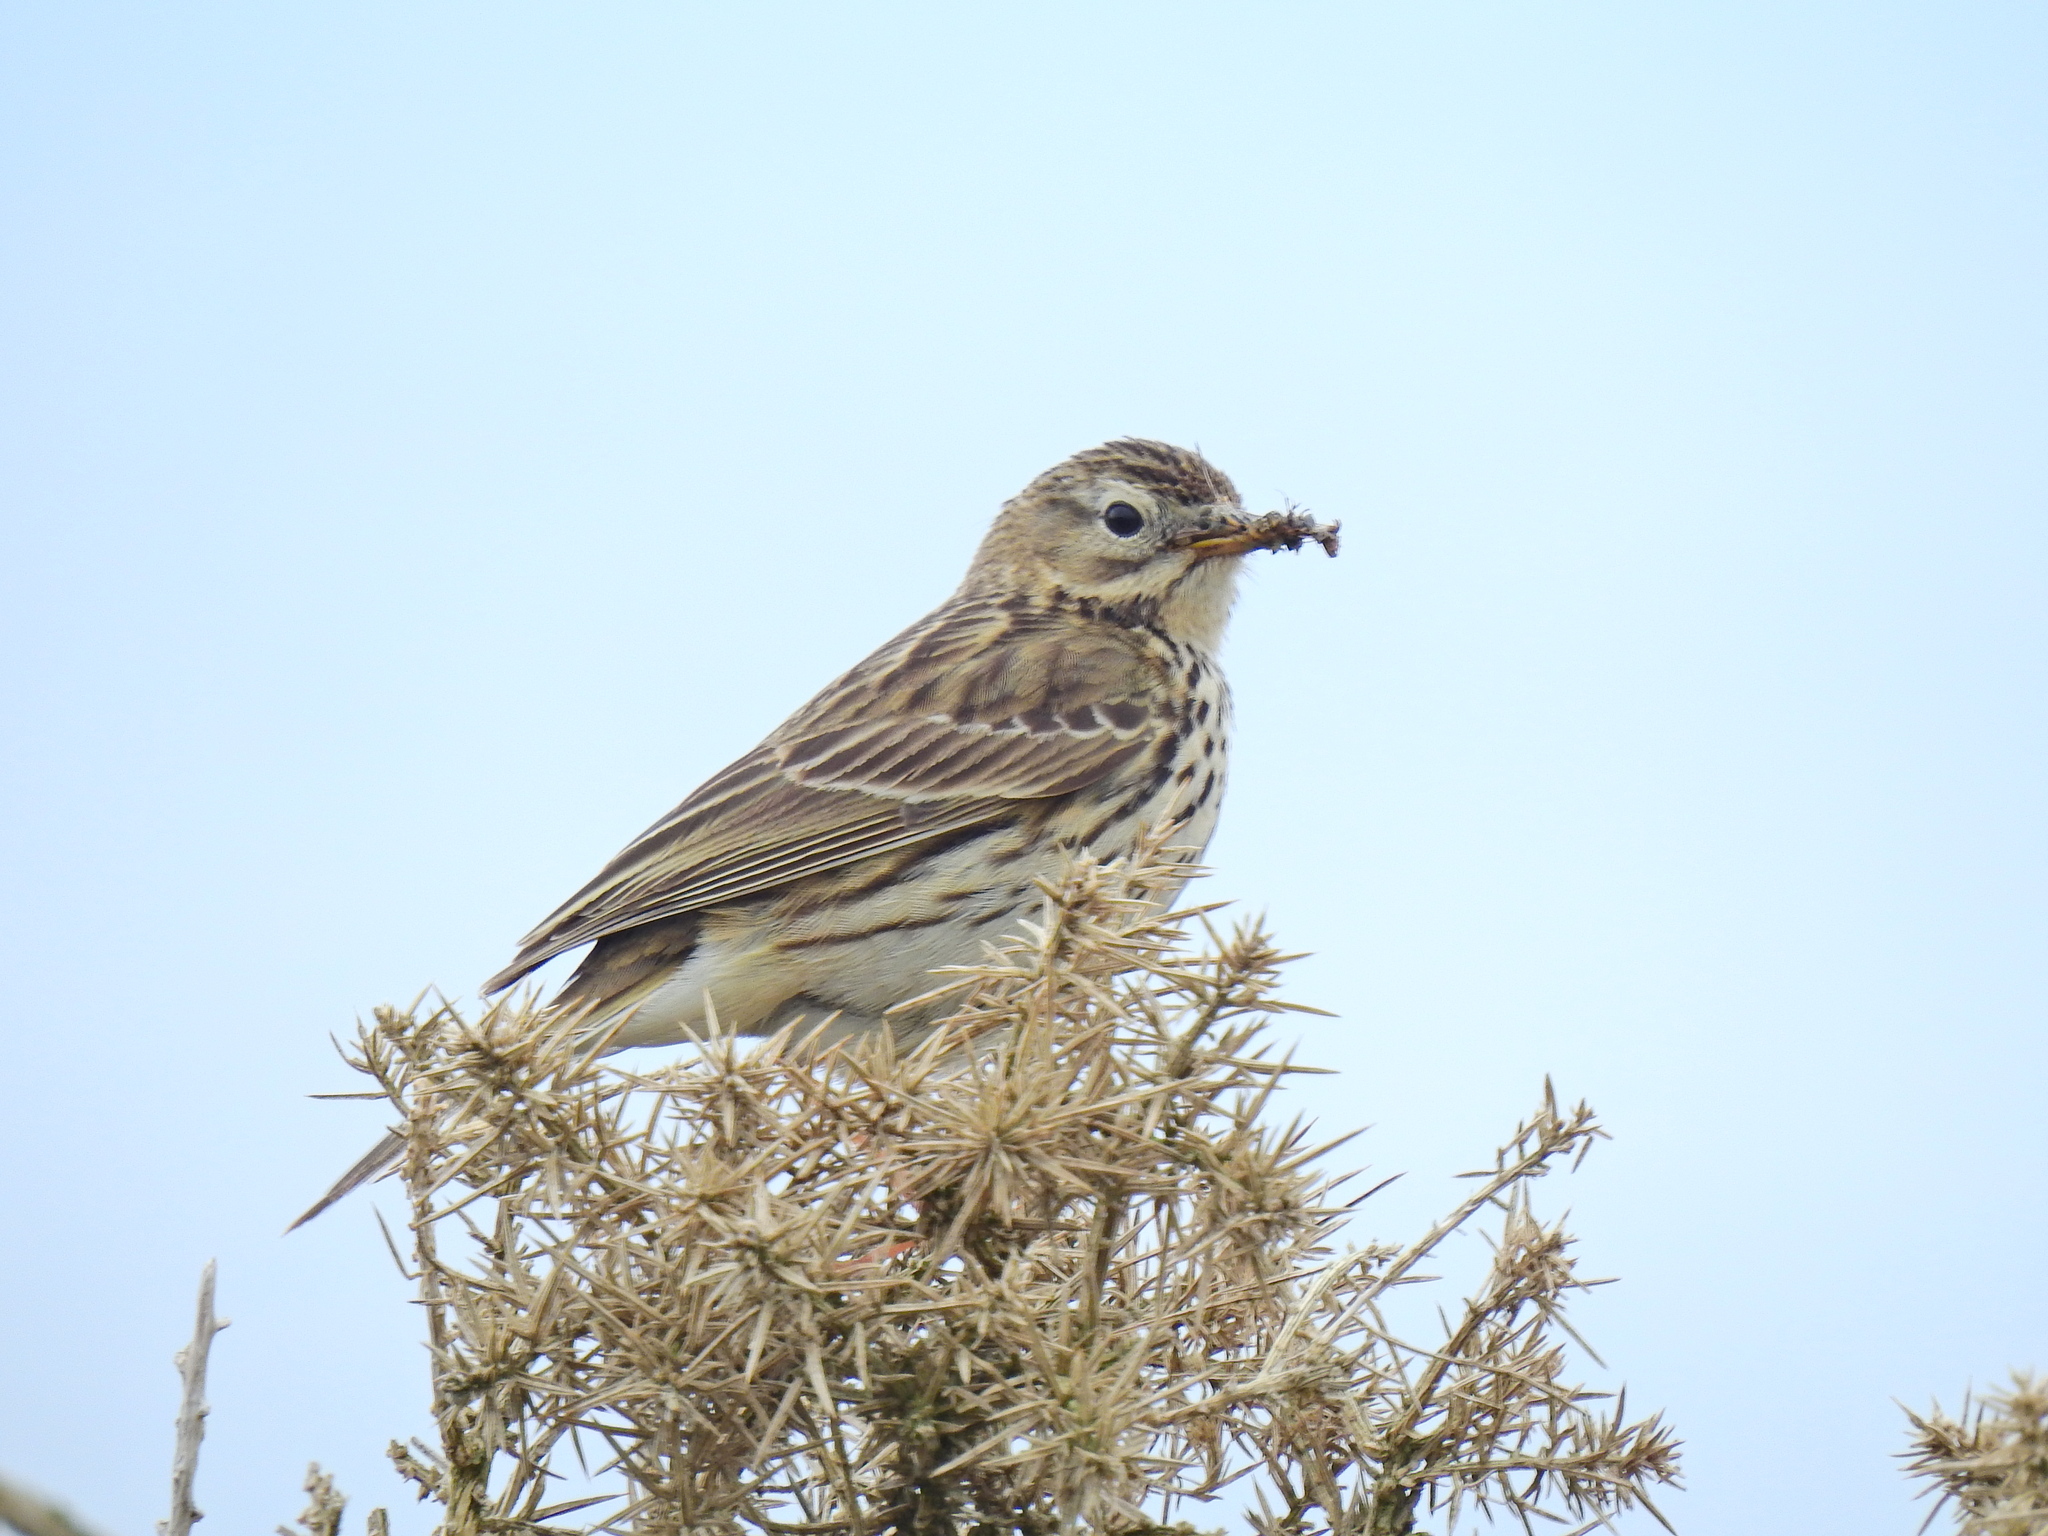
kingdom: Animalia
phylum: Chordata
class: Aves
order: Passeriformes
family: Motacillidae
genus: Anthus
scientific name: Anthus pratensis
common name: Meadow pipit
